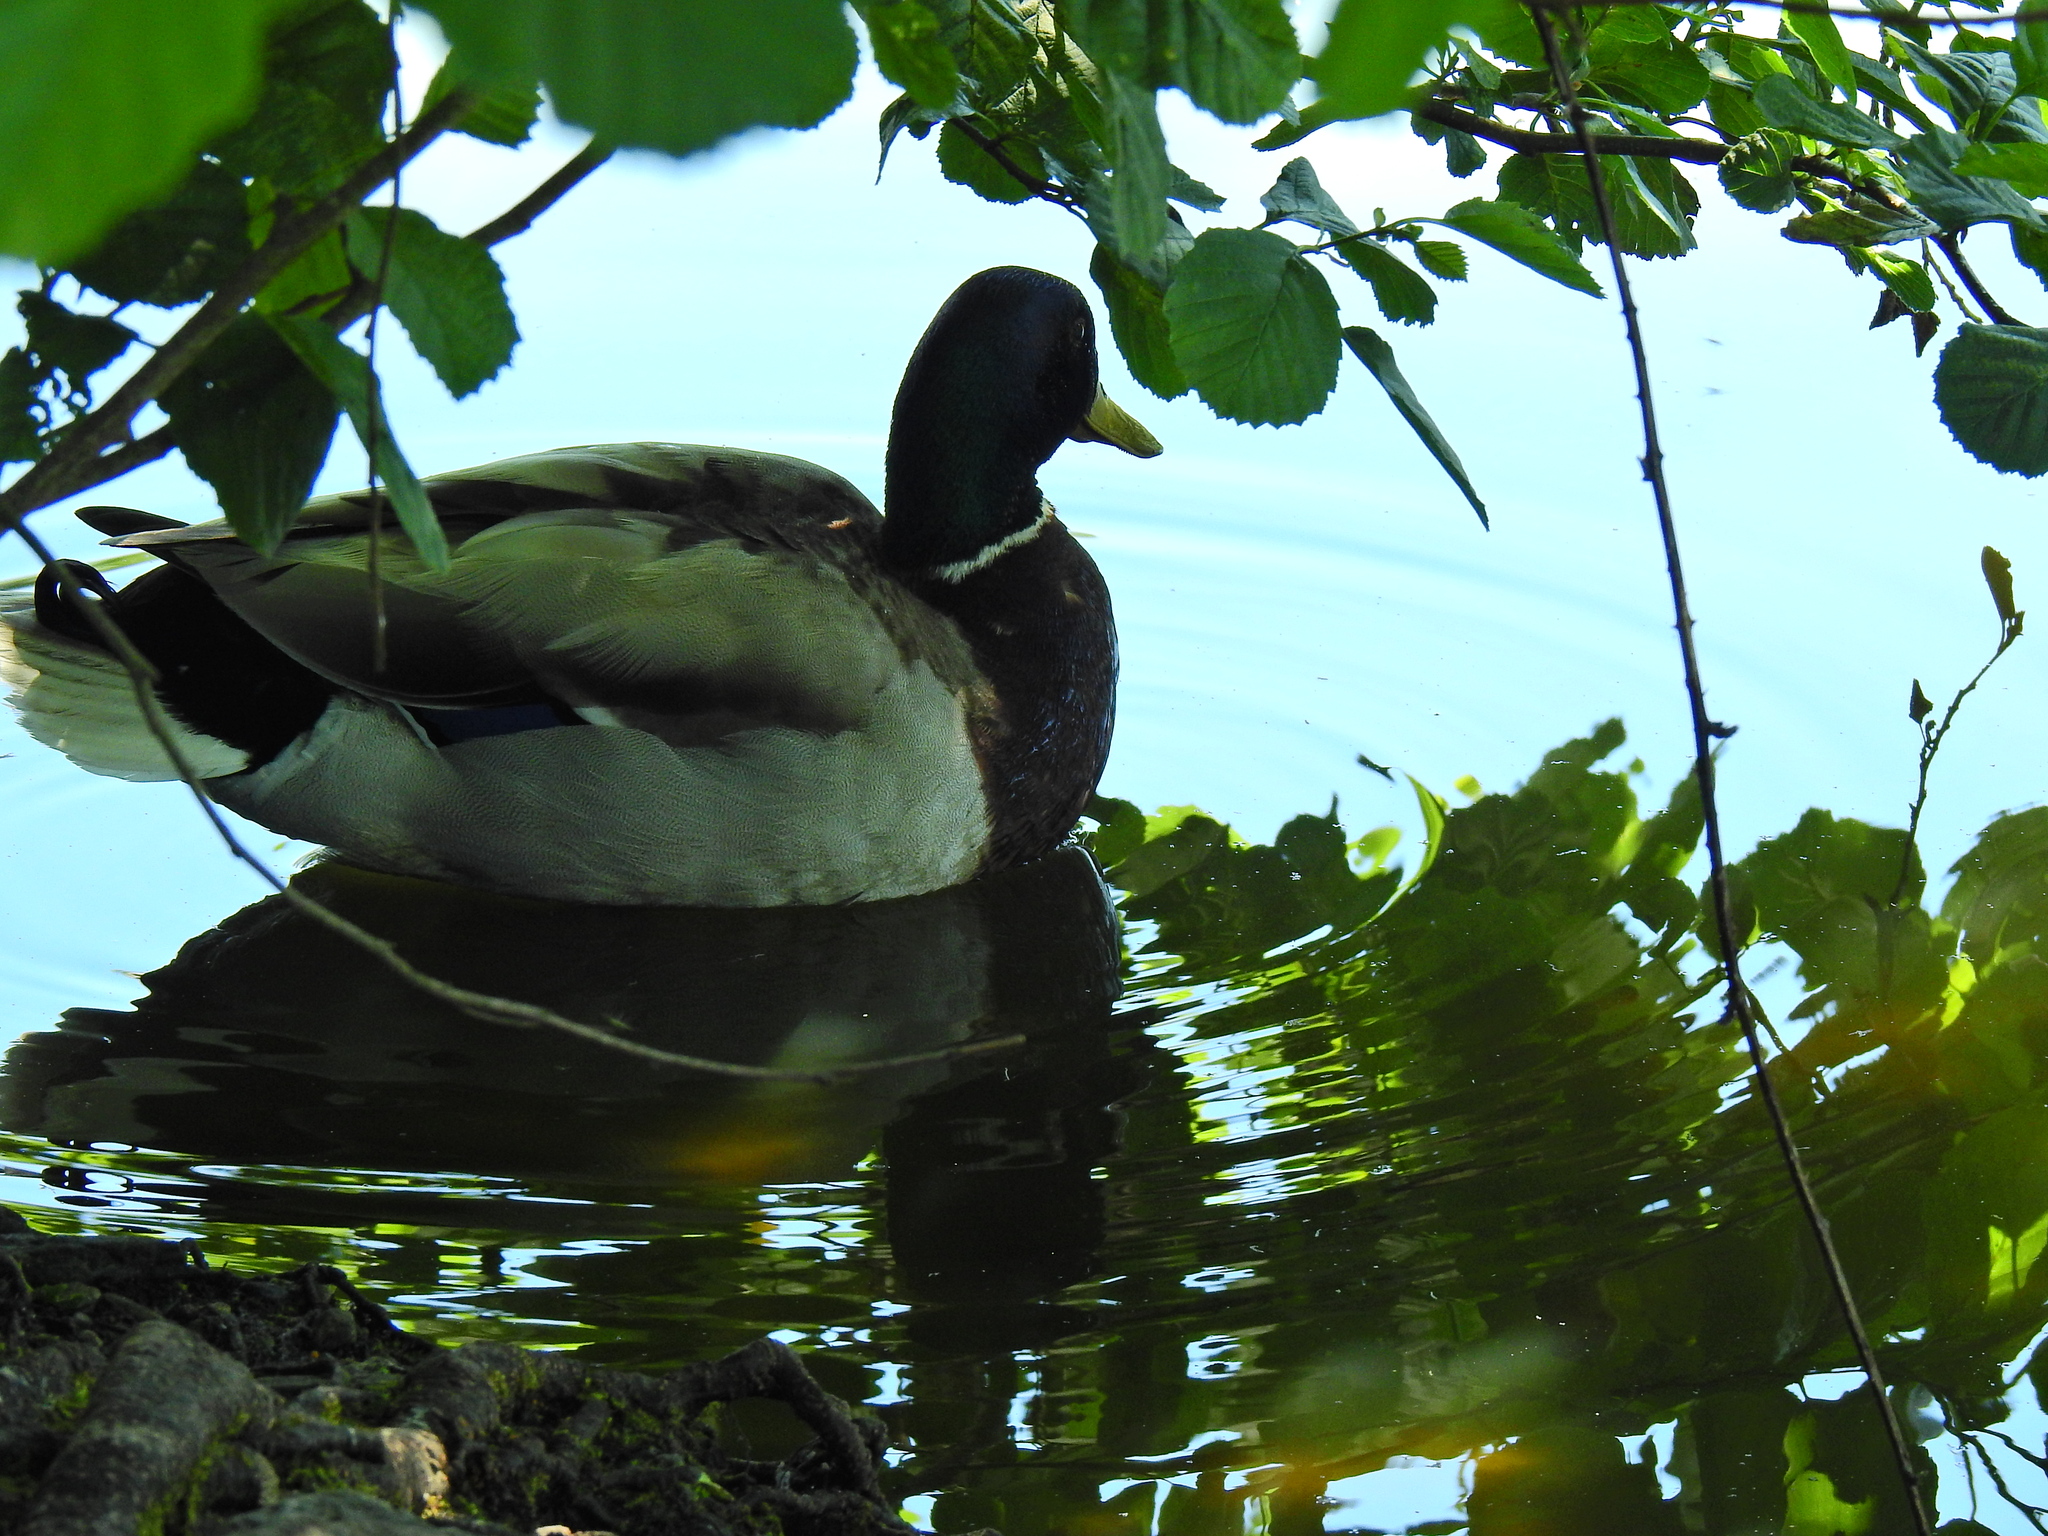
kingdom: Animalia
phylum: Chordata
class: Aves
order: Anseriformes
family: Anatidae
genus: Anas
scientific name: Anas platyrhynchos
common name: Mallard
